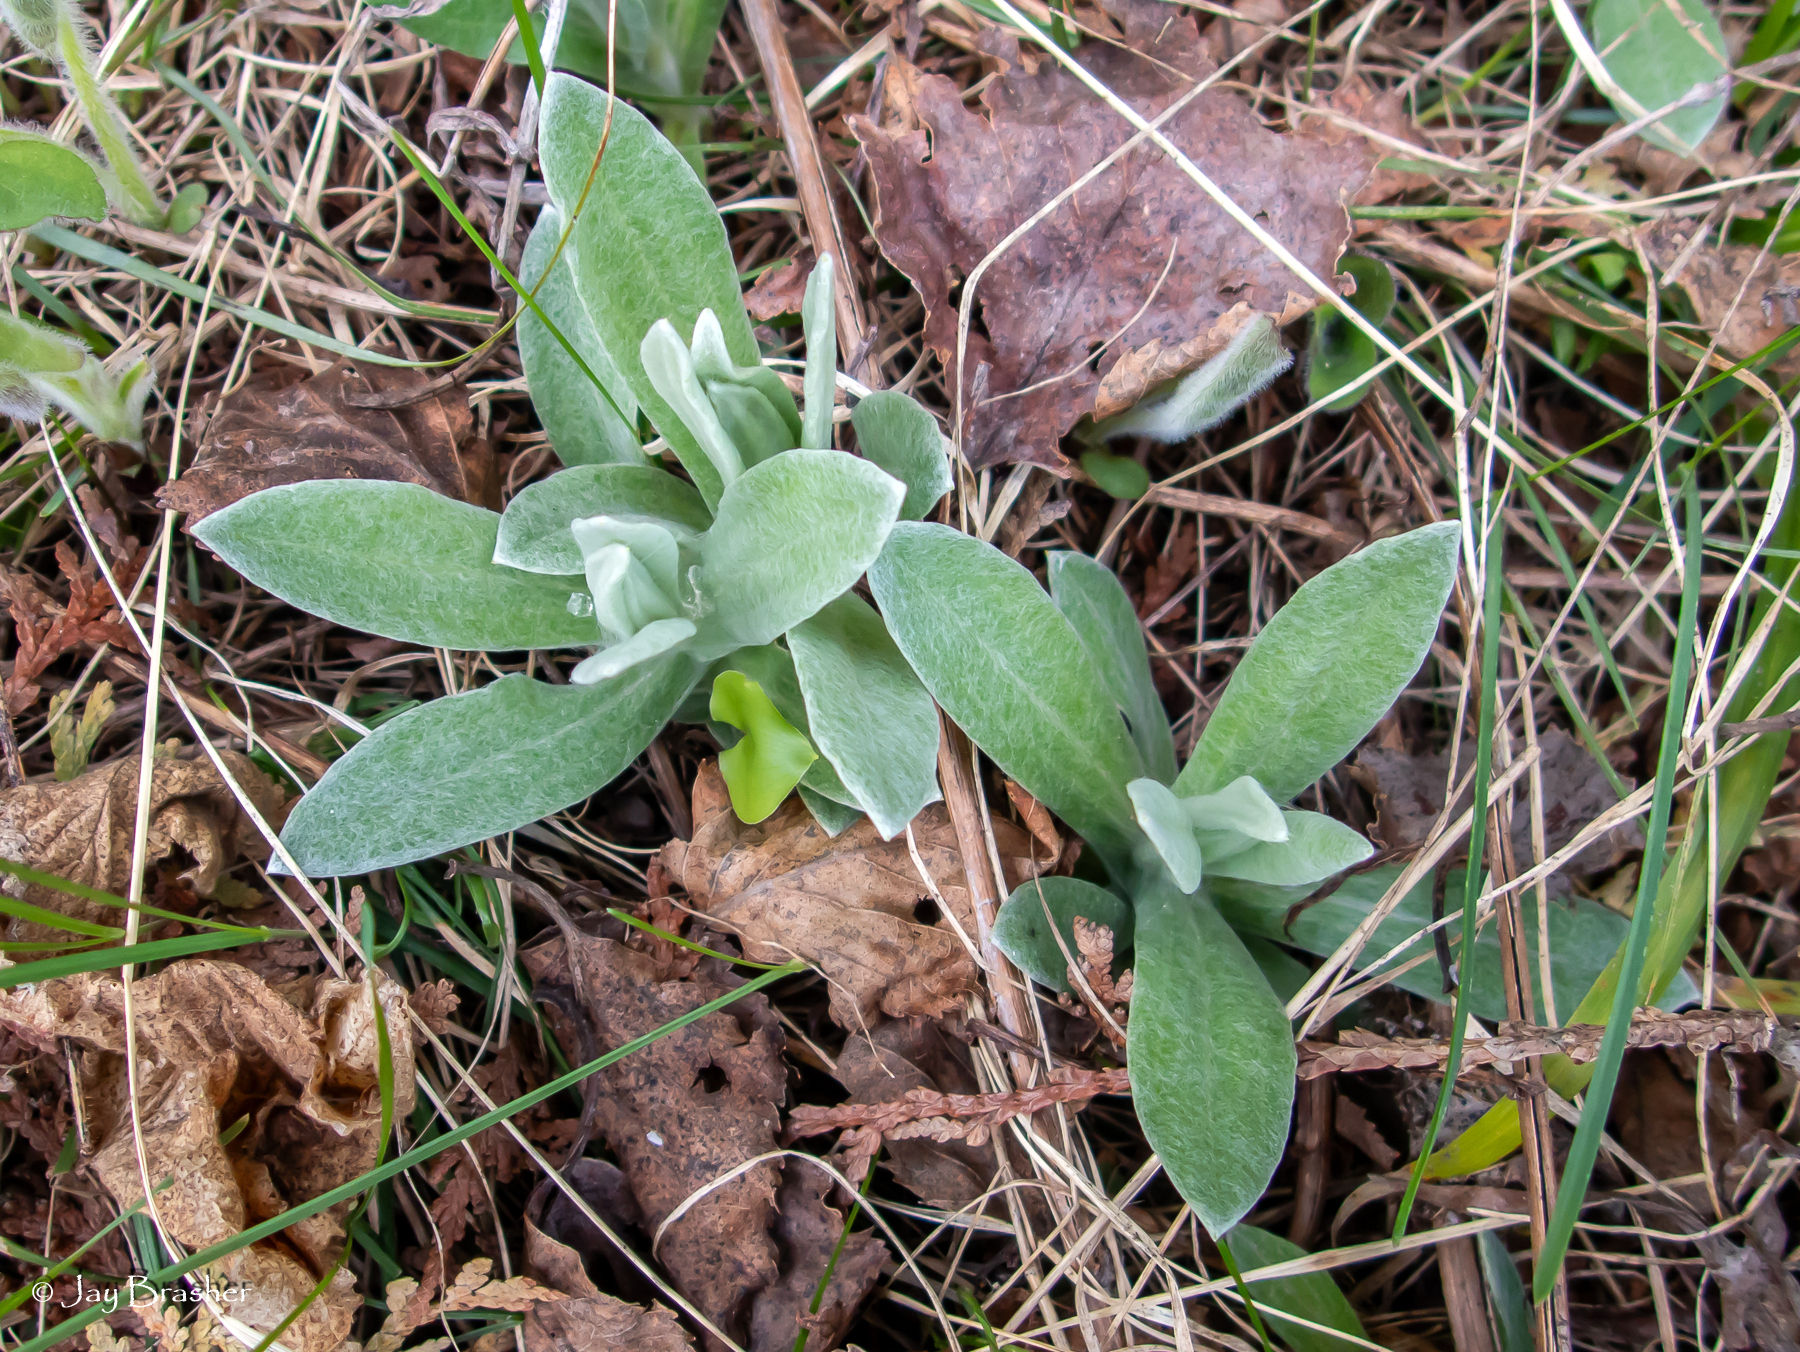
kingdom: Plantae
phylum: Tracheophyta
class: Magnoliopsida
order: Asterales
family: Asteraceae
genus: Anaphalis
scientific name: Anaphalis margaritacea
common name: Pearly everlasting
